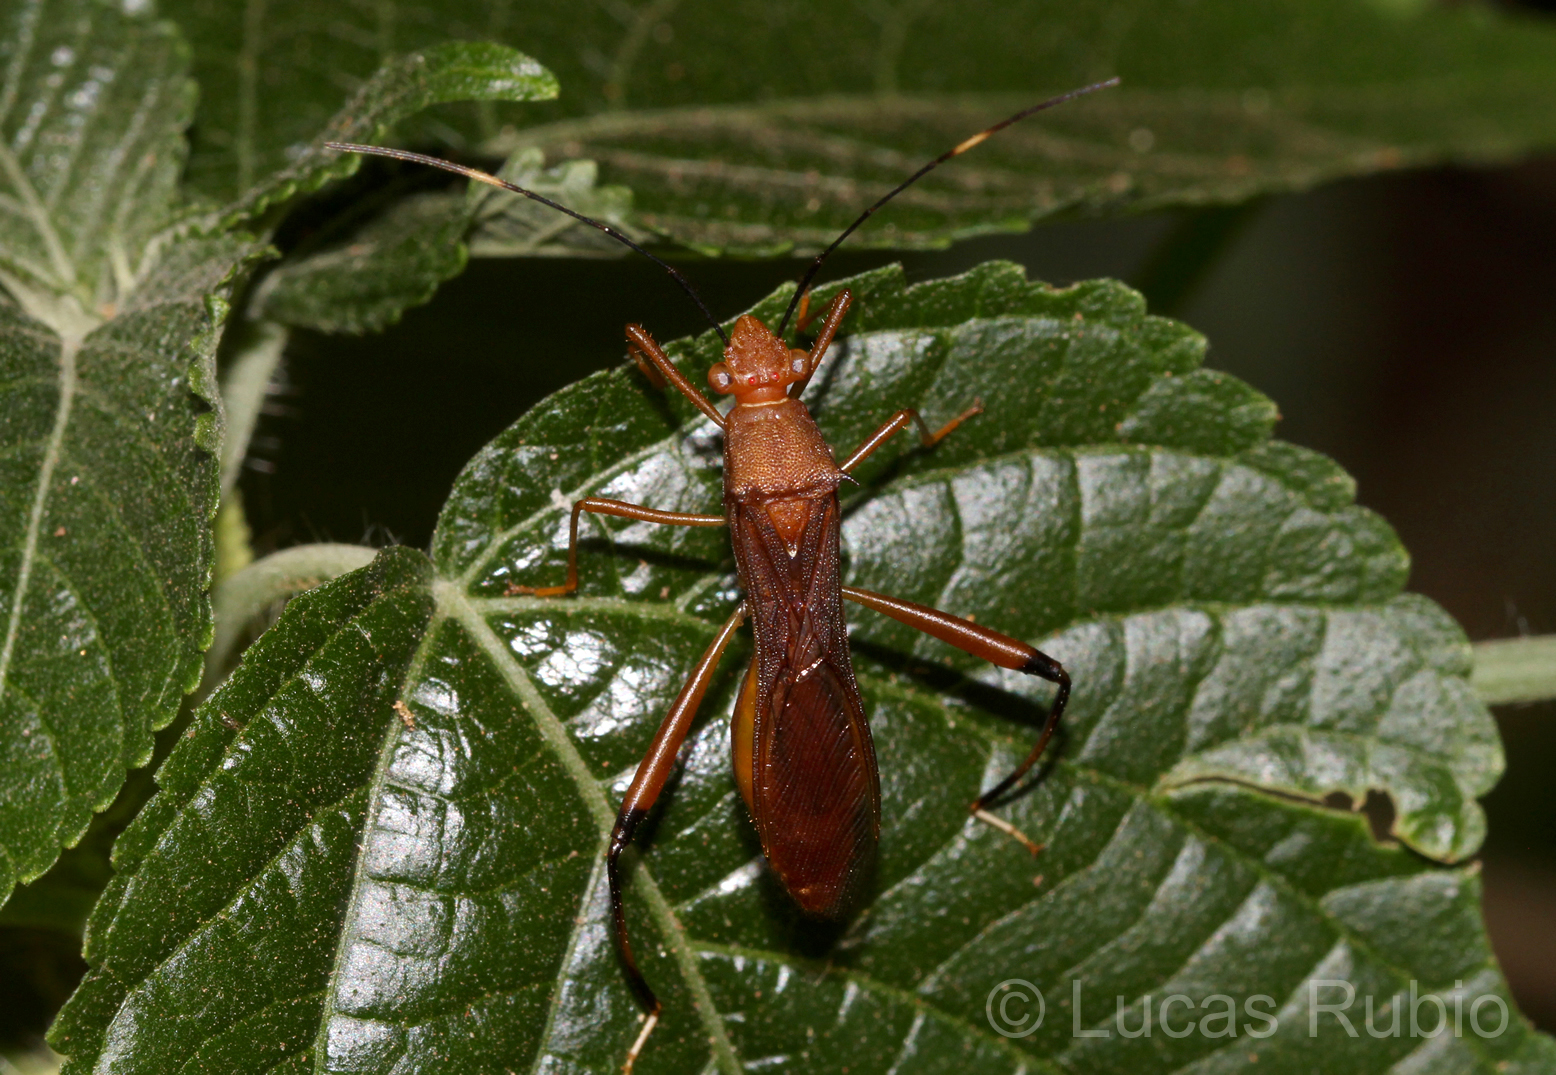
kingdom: Animalia
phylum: Arthropoda
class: Insecta
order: Hemiptera
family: Alydidae
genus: Hyalymenus
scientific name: Hyalymenus pulcher
